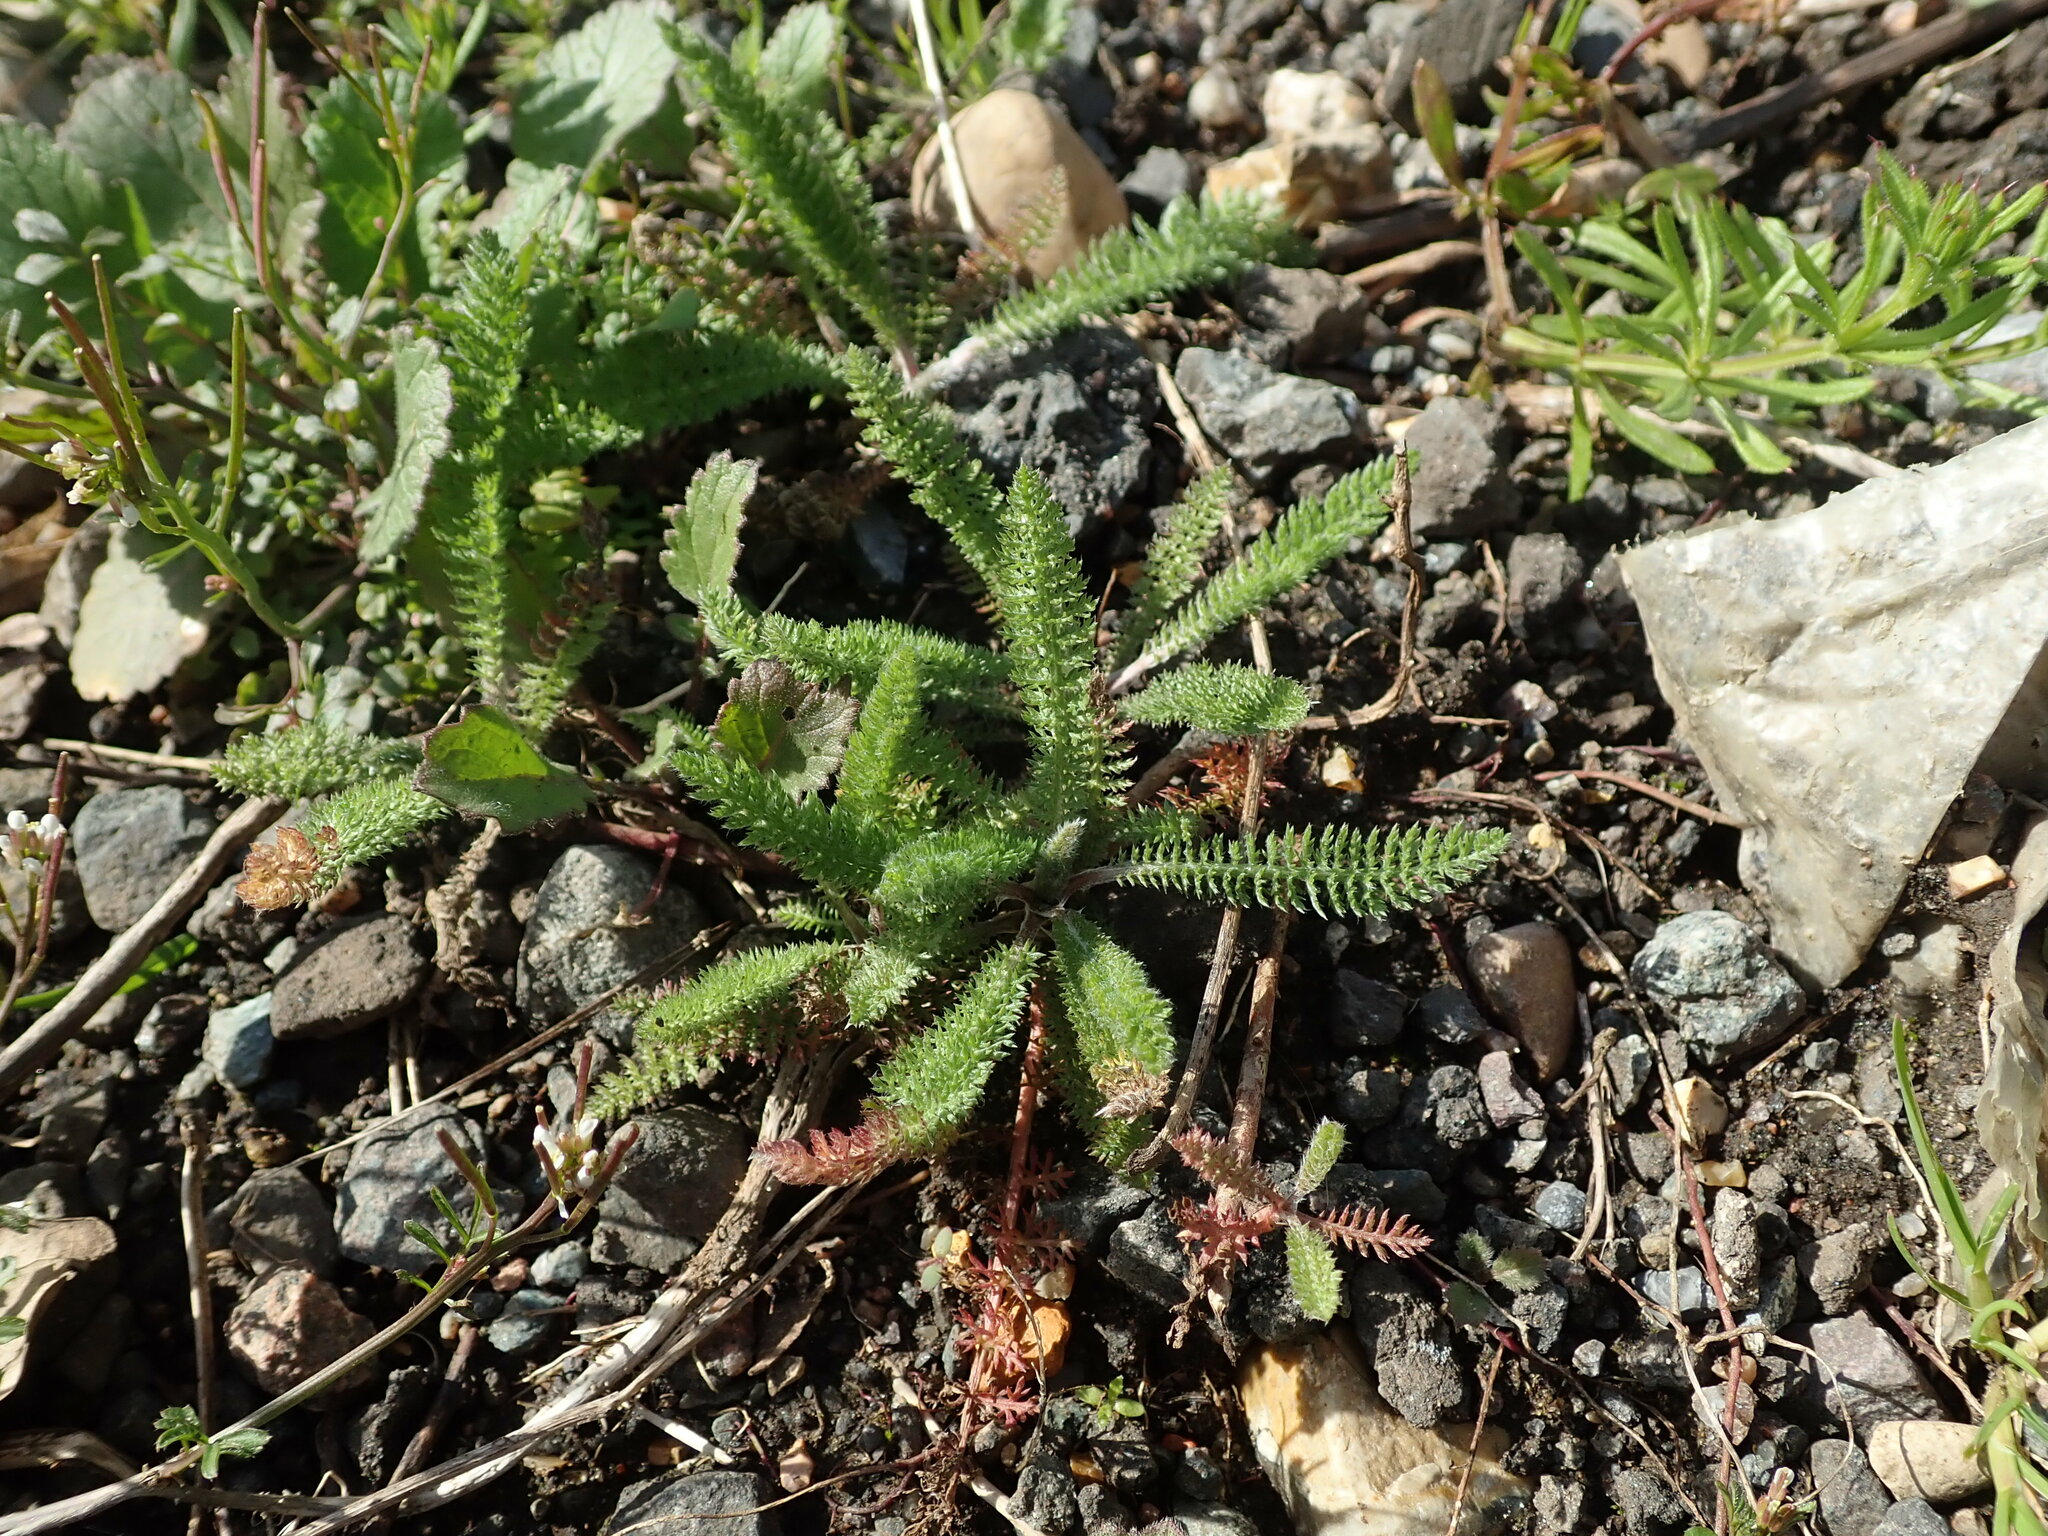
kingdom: Plantae
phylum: Tracheophyta
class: Magnoliopsida
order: Asterales
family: Asteraceae
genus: Achillea
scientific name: Achillea millefolium
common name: Yarrow
